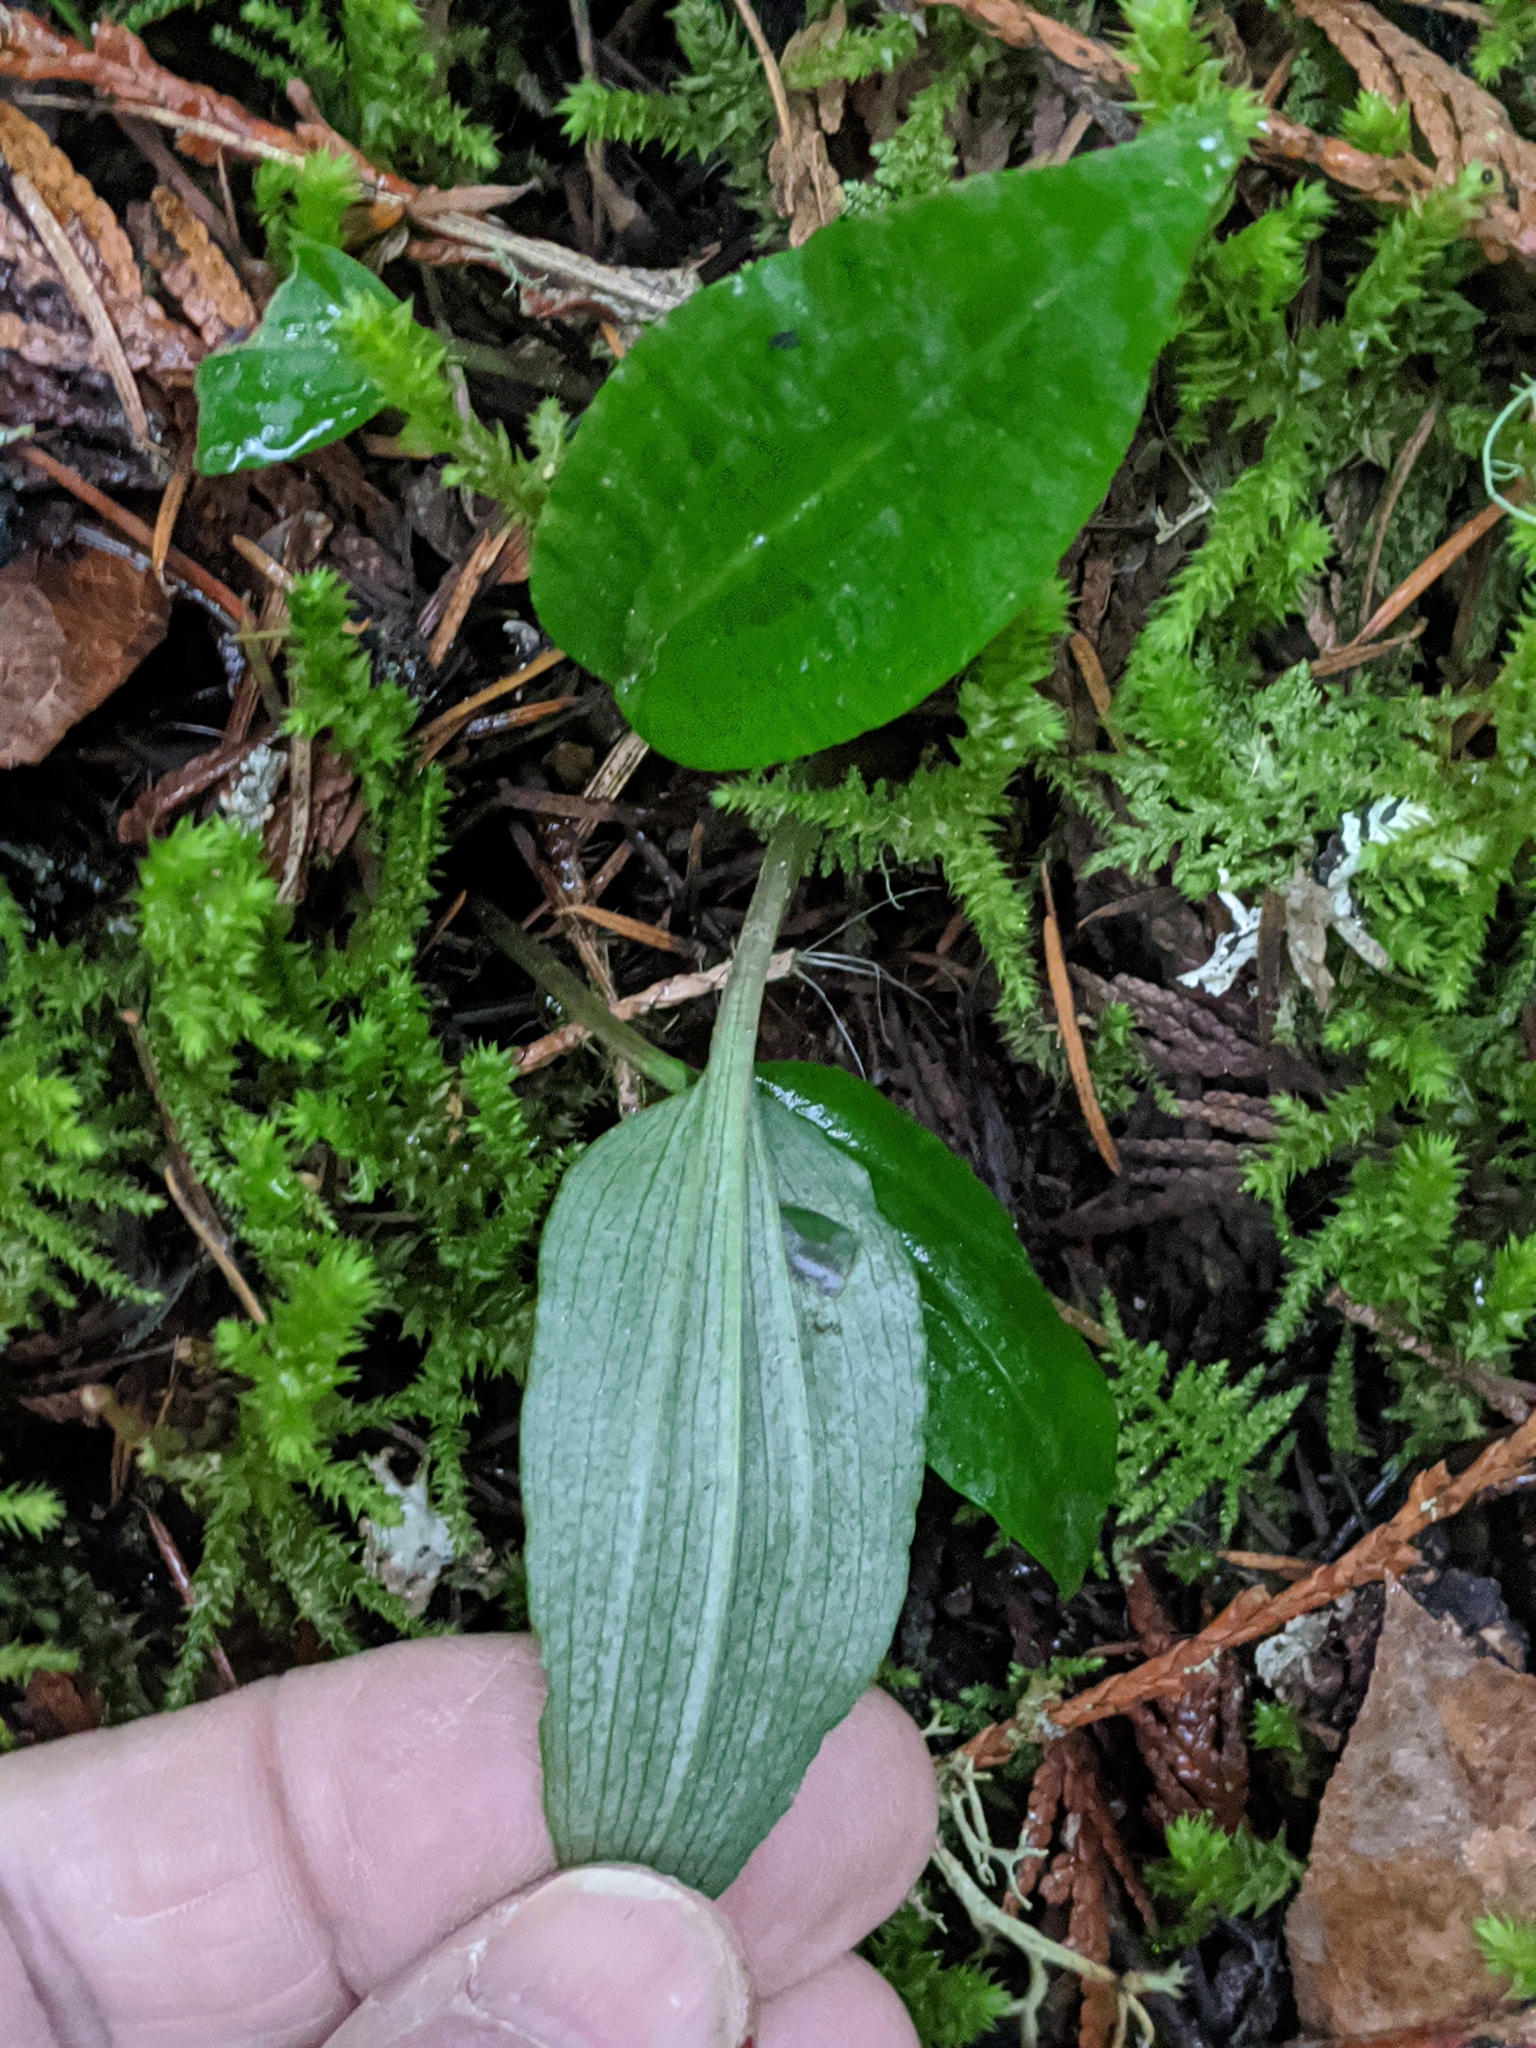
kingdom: Plantae
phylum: Tracheophyta
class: Liliopsida
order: Asparagales
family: Orchidaceae
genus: Calypso
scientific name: Calypso bulbosa
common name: Calypso
